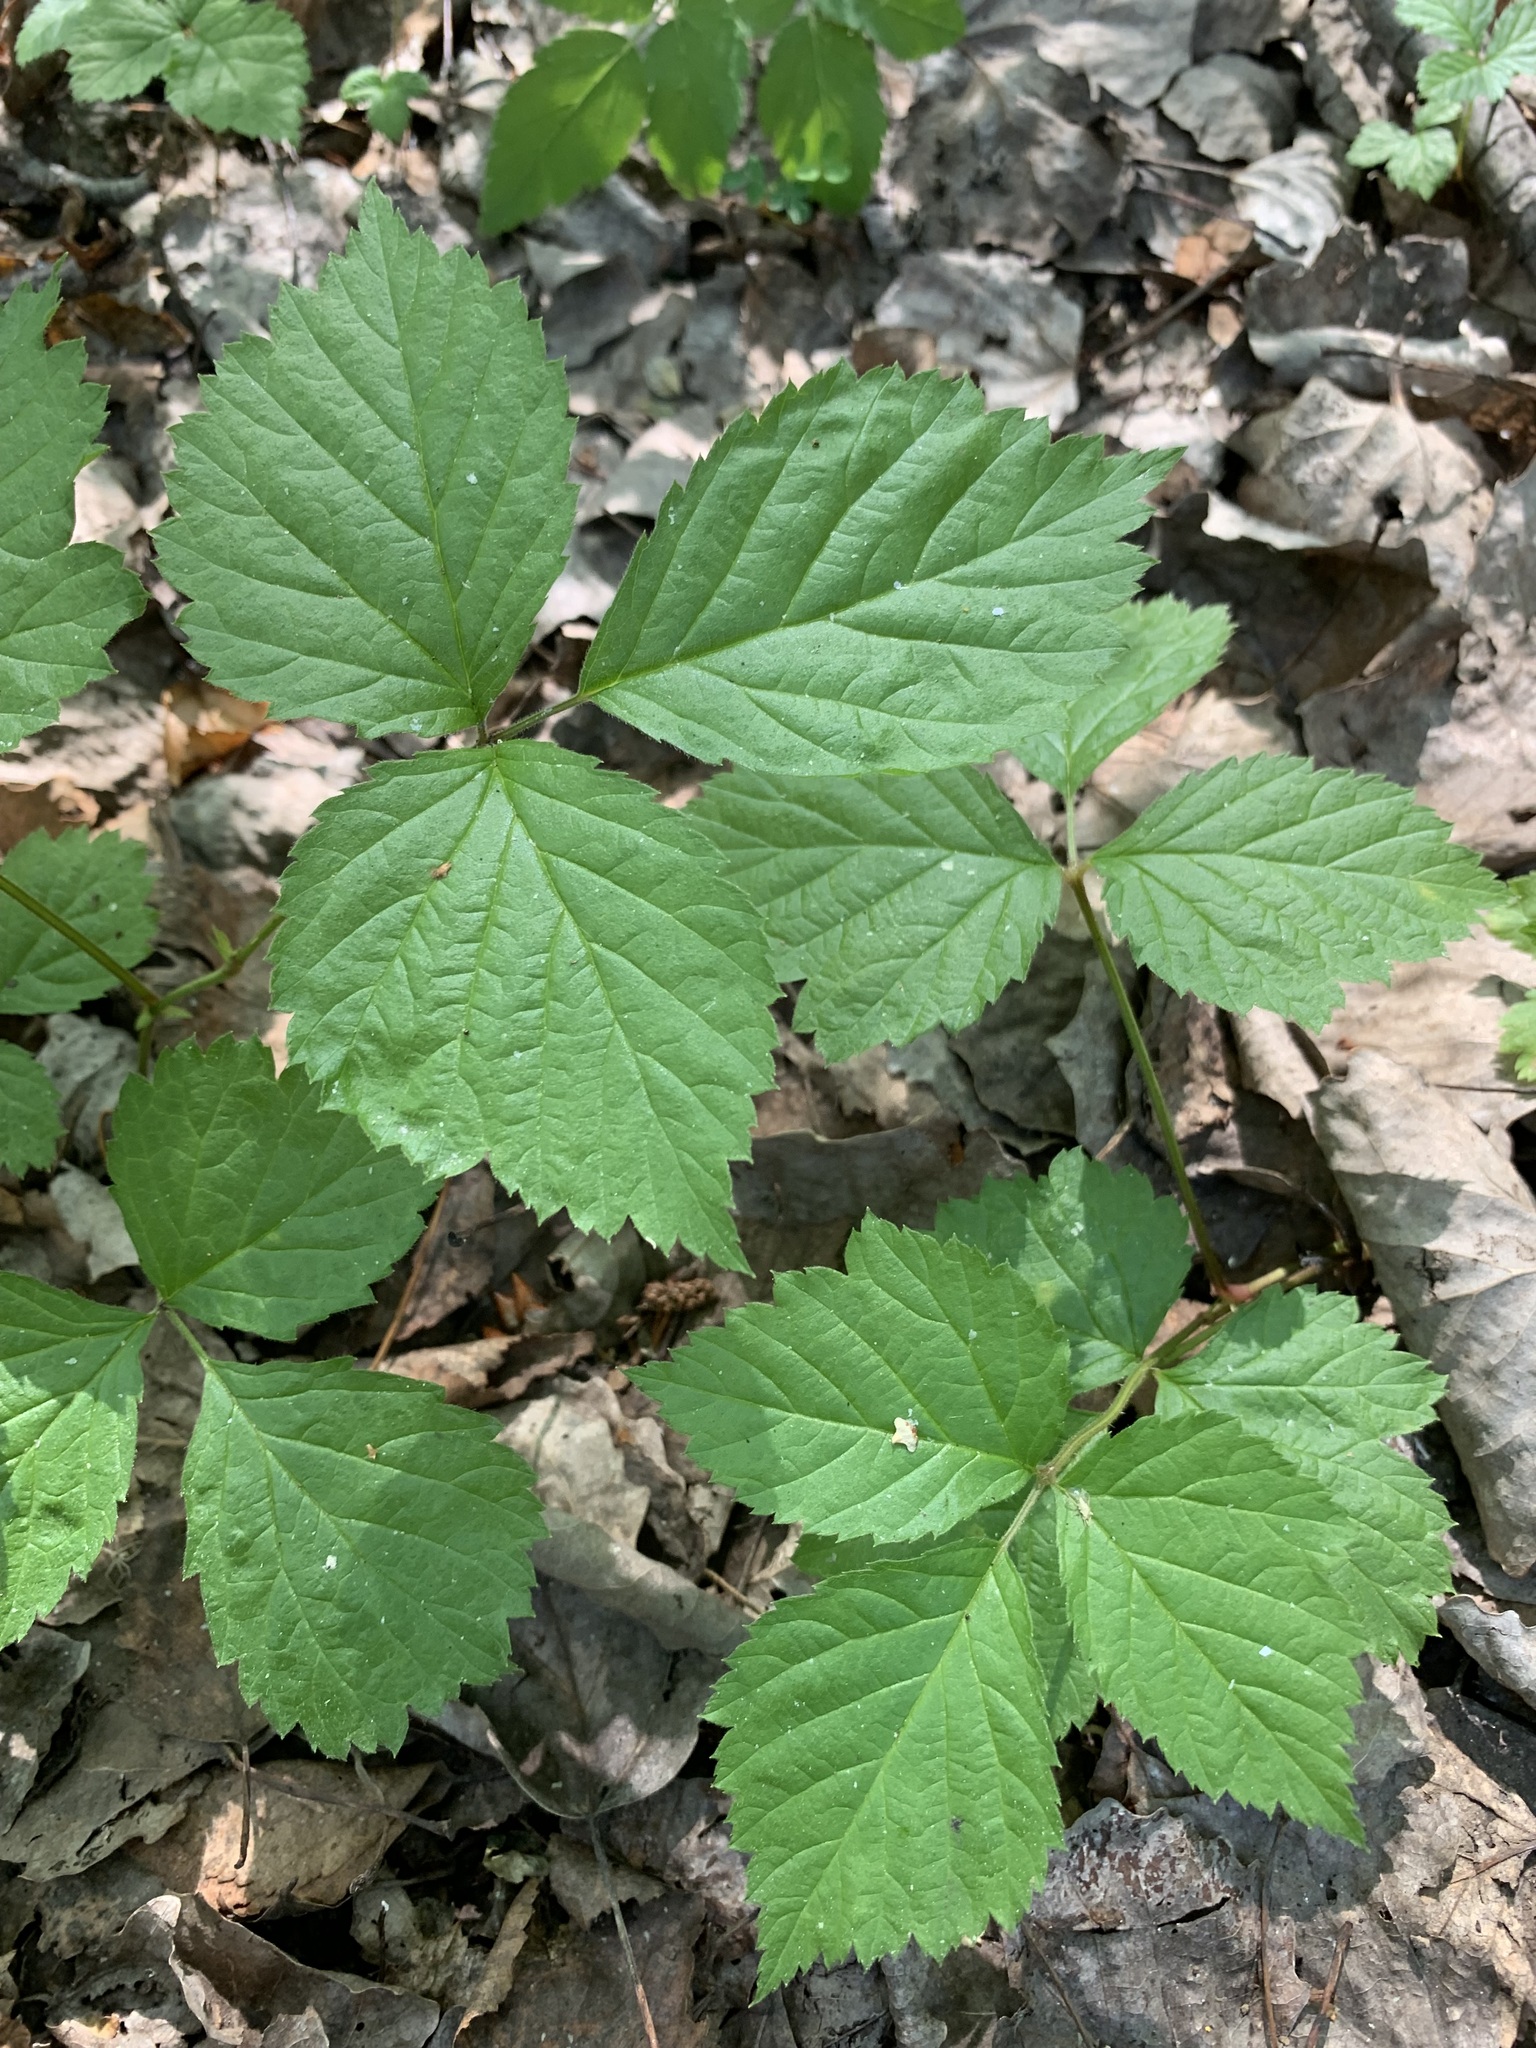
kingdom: Plantae
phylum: Tracheophyta
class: Magnoliopsida
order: Rosales
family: Rosaceae
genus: Rubus
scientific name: Rubus saxatilis
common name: Stone bramble
